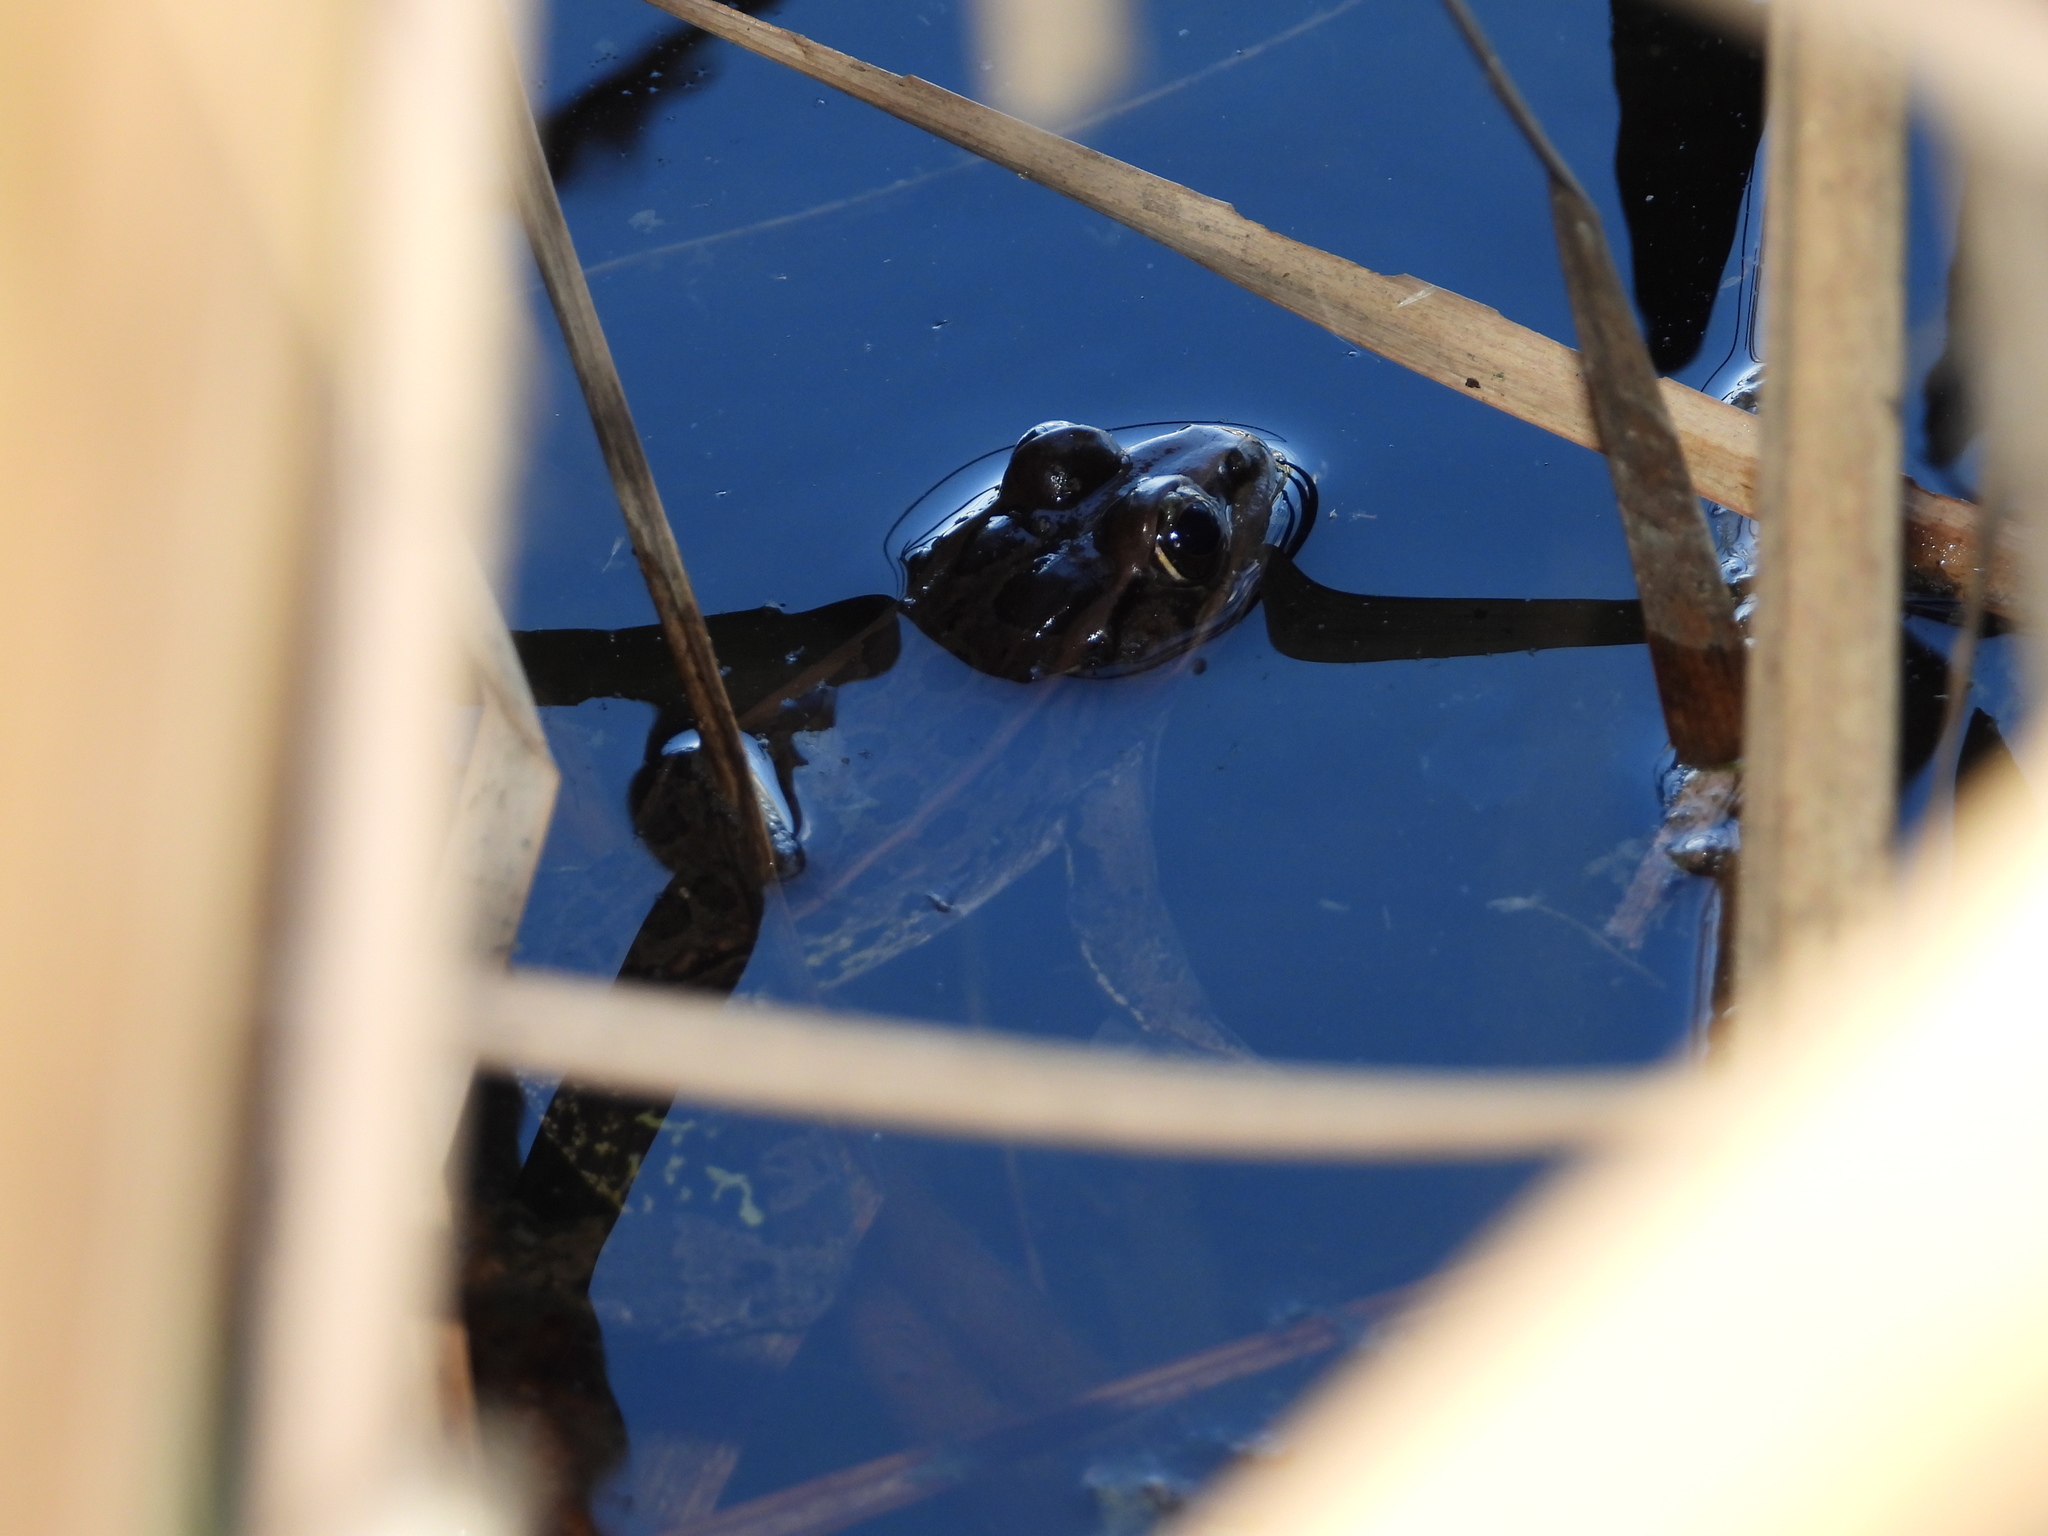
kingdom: Animalia
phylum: Chordata
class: Amphibia
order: Anura
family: Ranidae
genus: Lithobates
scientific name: Lithobates berlandieri
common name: Rio grande leopard frog
